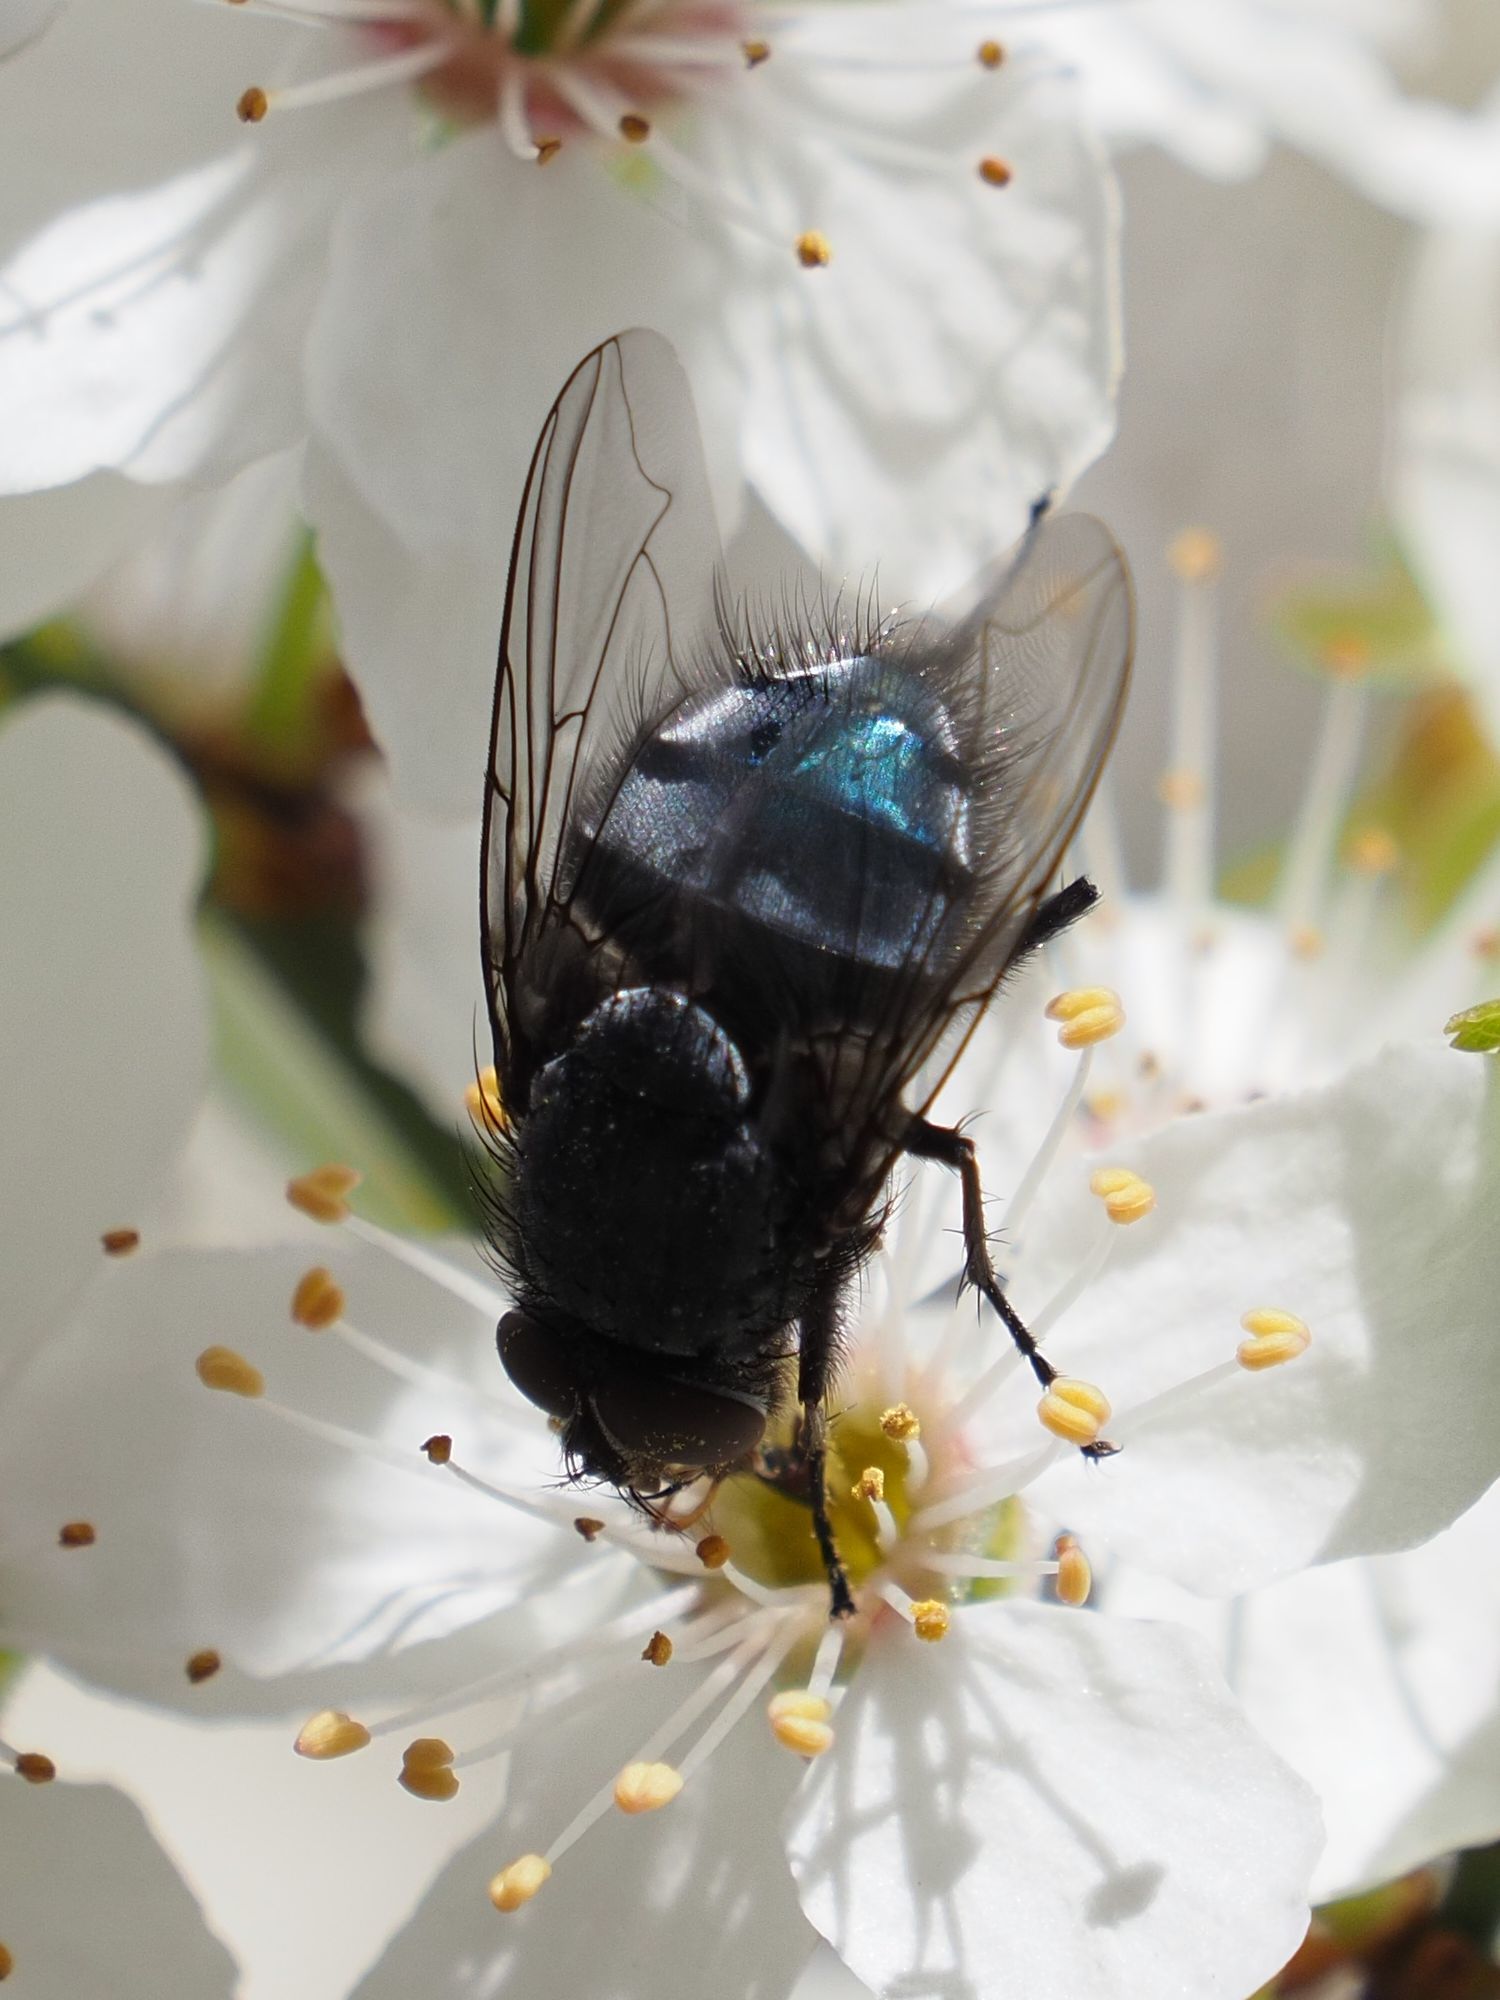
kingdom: Animalia
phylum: Arthropoda
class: Insecta
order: Diptera
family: Calliphoridae
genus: Calliphora
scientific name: Calliphora vicina
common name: Common blow flie
